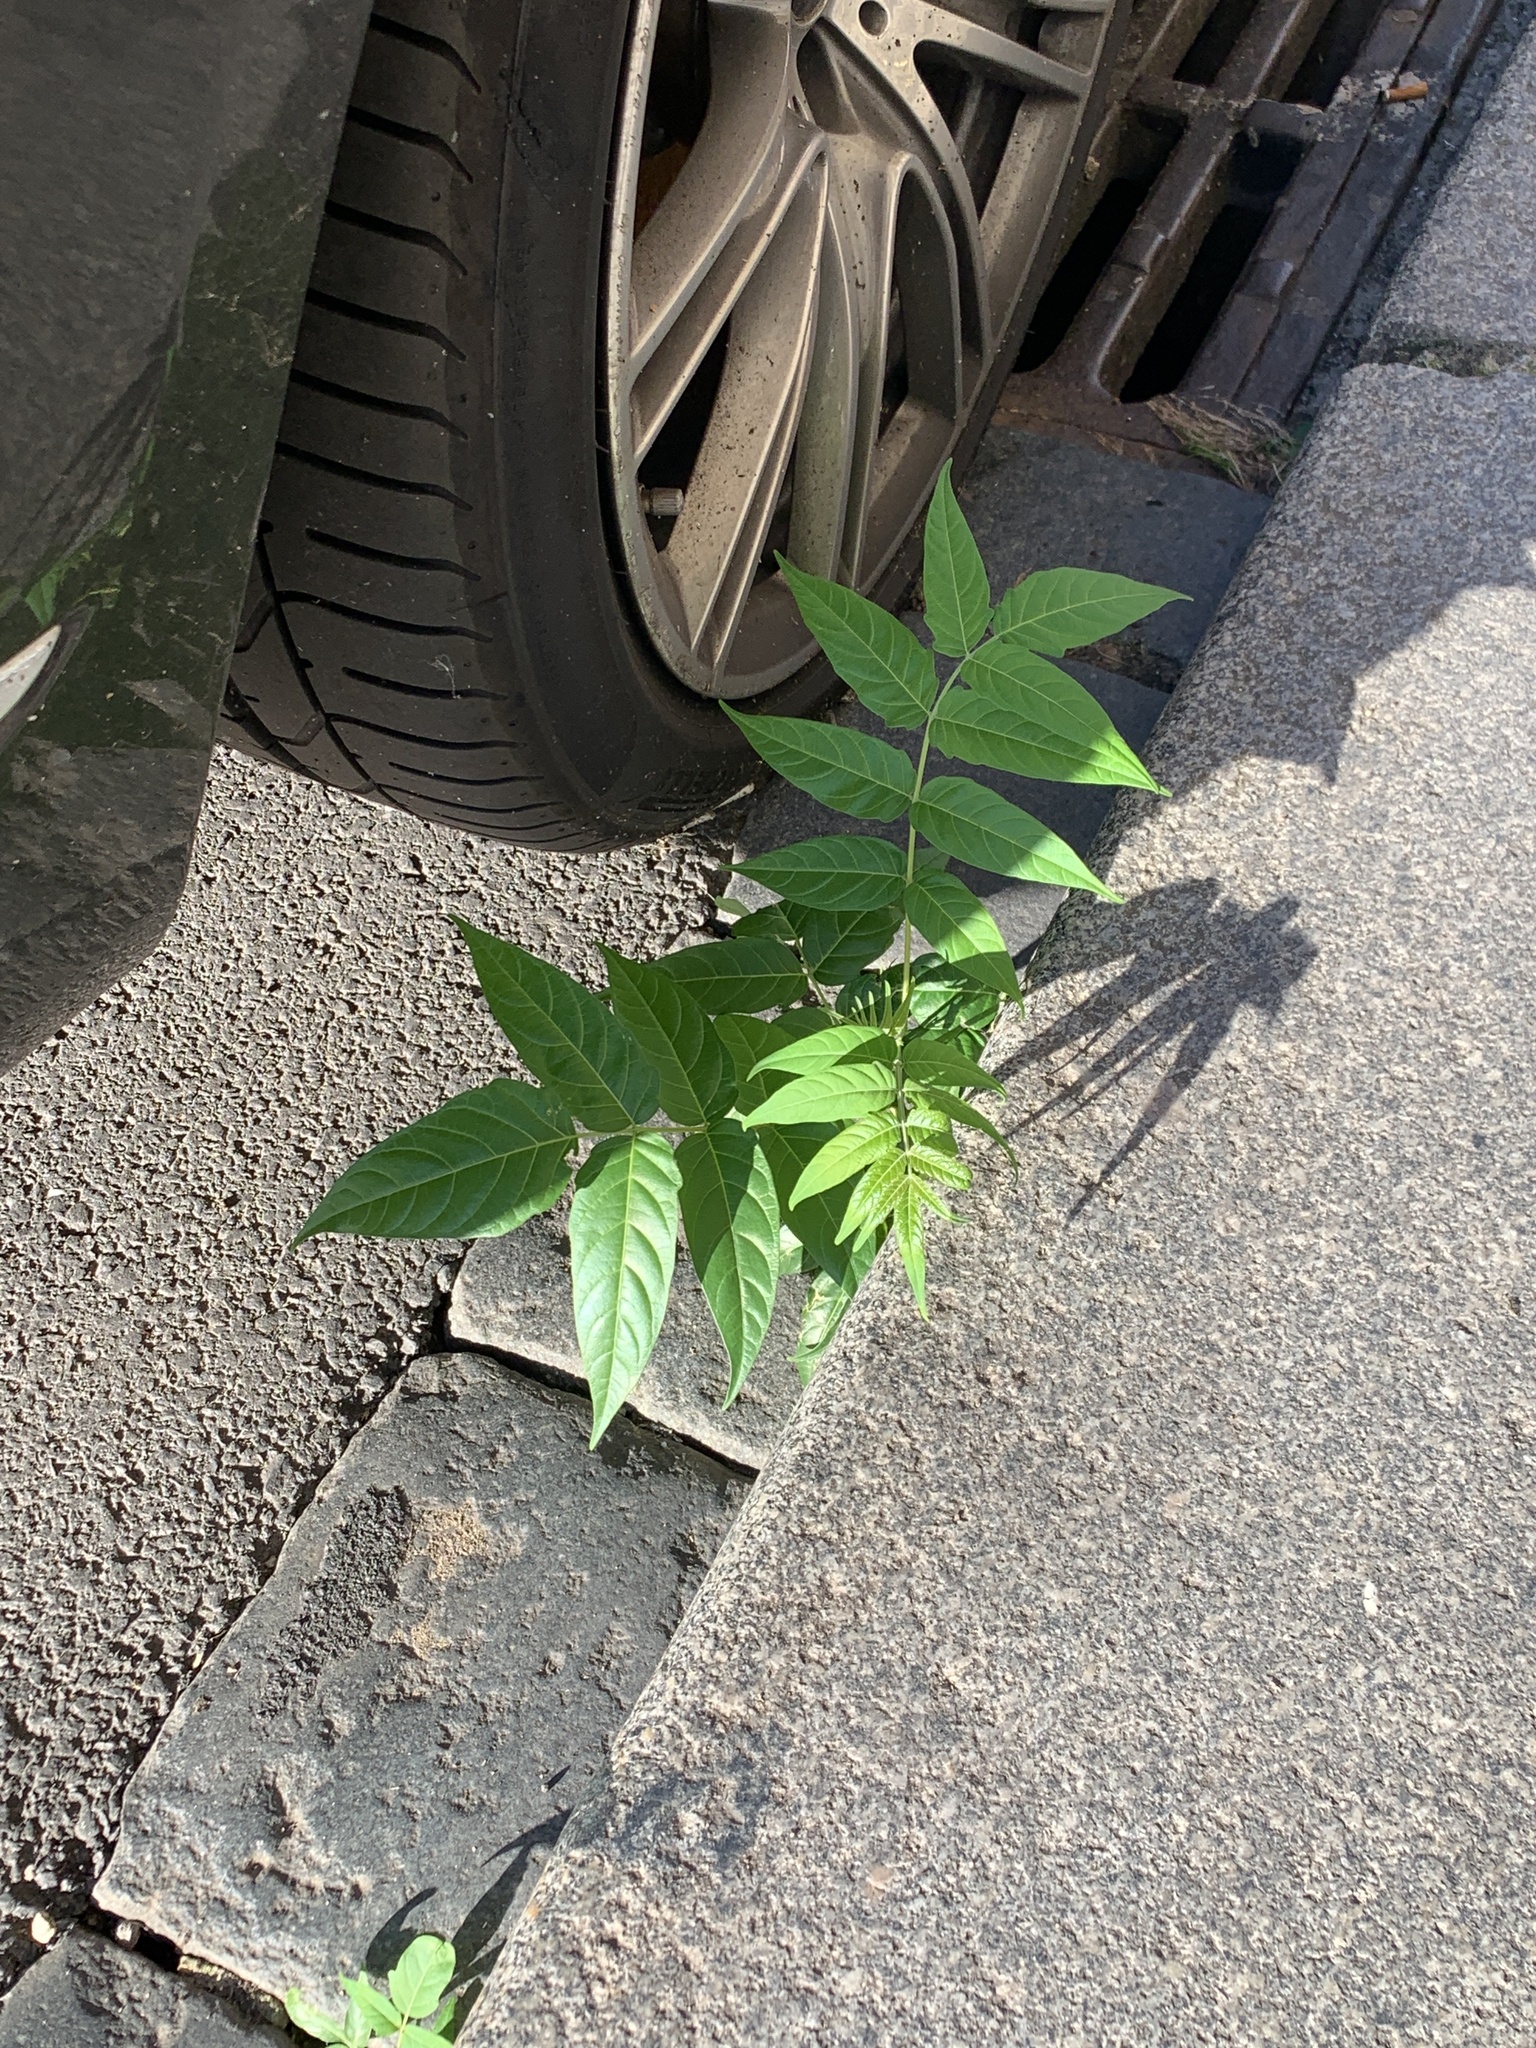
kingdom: Plantae
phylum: Tracheophyta
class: Magnoliopsida
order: Sapindales
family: Simaroubaceae
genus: Ailanthus
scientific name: Ailanthus altissima
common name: Tree-of-heaven
